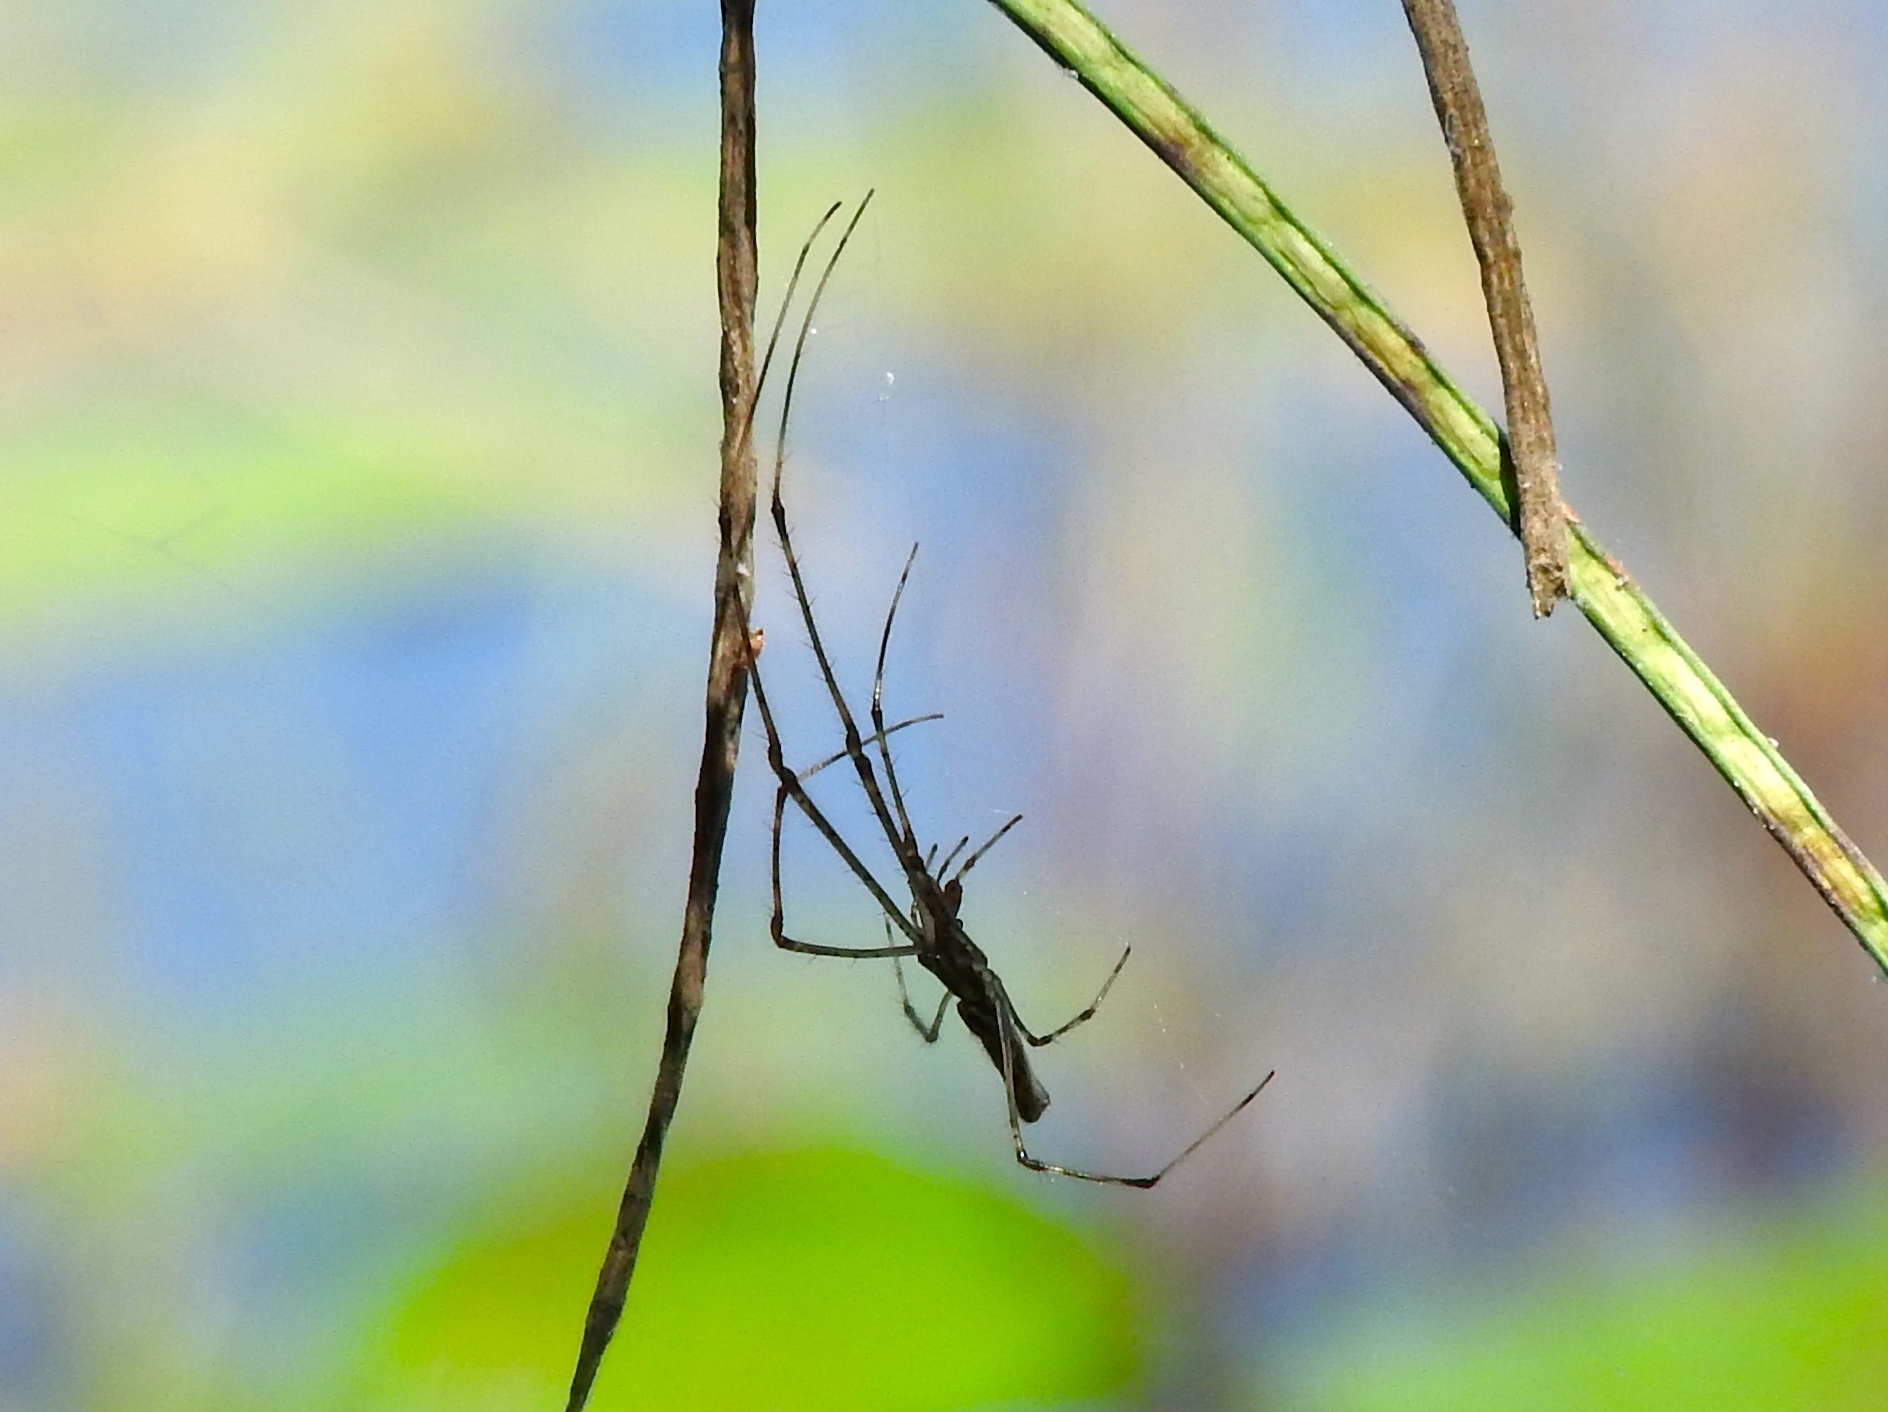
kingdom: Animalia
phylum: Arthropoda
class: Arachnida
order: Araneae
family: Tetragnathidae
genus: Tetragnatha
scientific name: Tetragnatha
